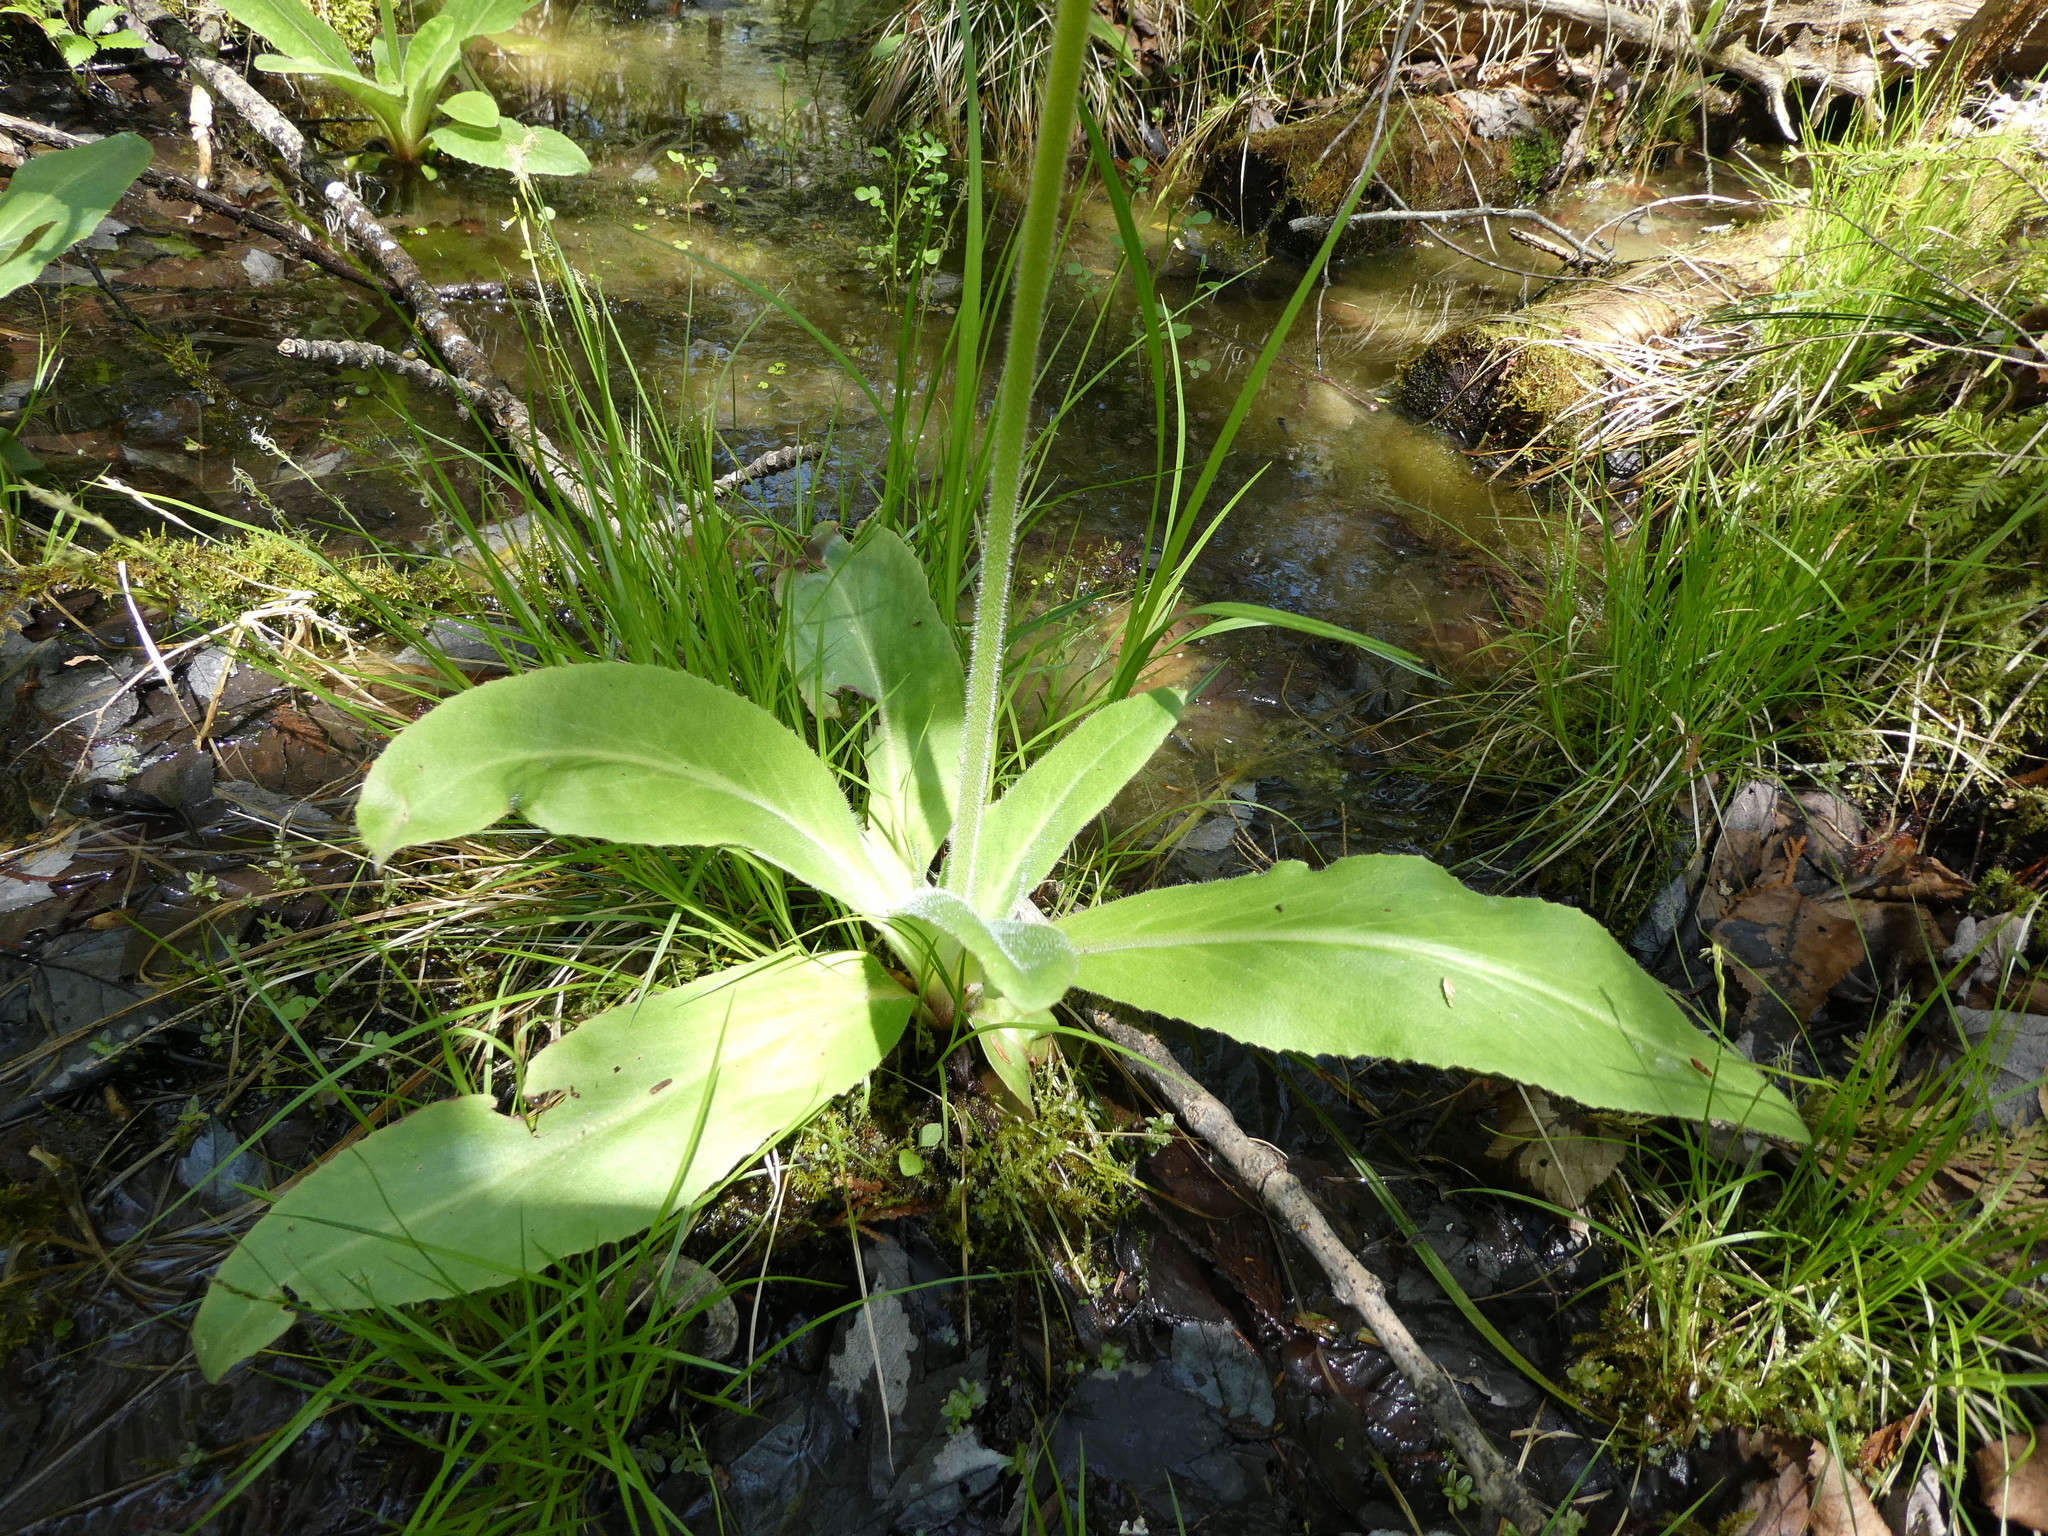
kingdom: Plantae
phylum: Tracheophyta
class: Magnoliopsida
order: Saxifragales
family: Saxifragaceae
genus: Micranthes
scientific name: Micranthes pensylvanica
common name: Marsh saxifrage
